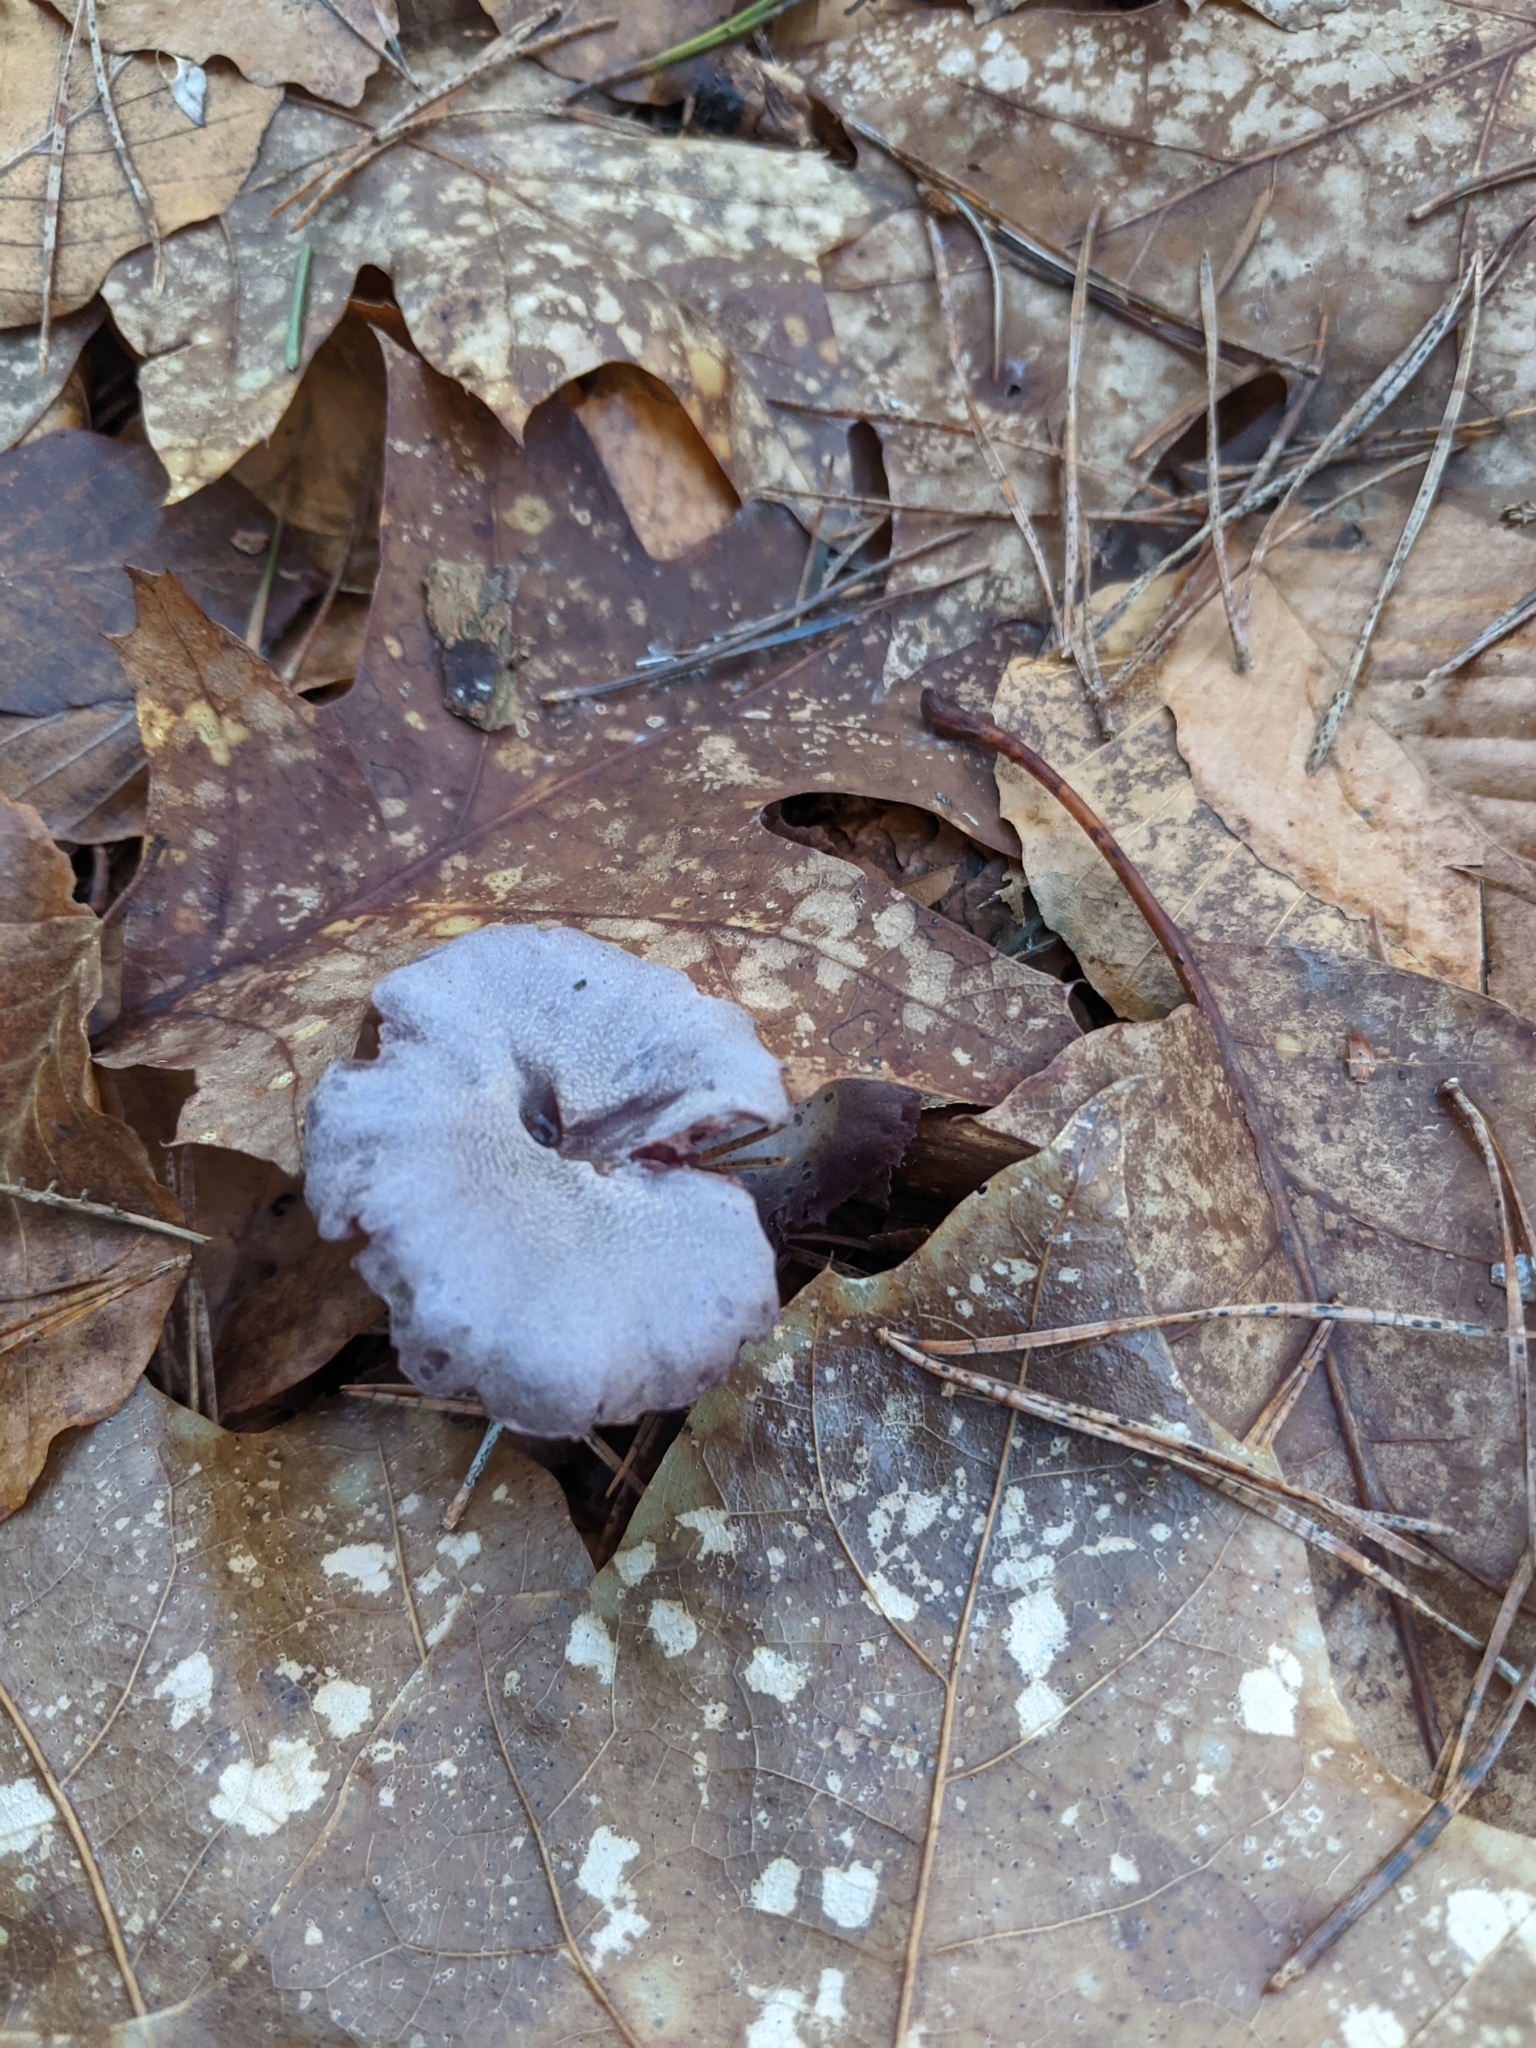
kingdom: Fungi
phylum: Basidiomycota
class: Agaricomycetes
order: Agaricales
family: Hydnangiaceae
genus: Laccaria
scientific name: Laccaria amethystina
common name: Amethyst deceiver
